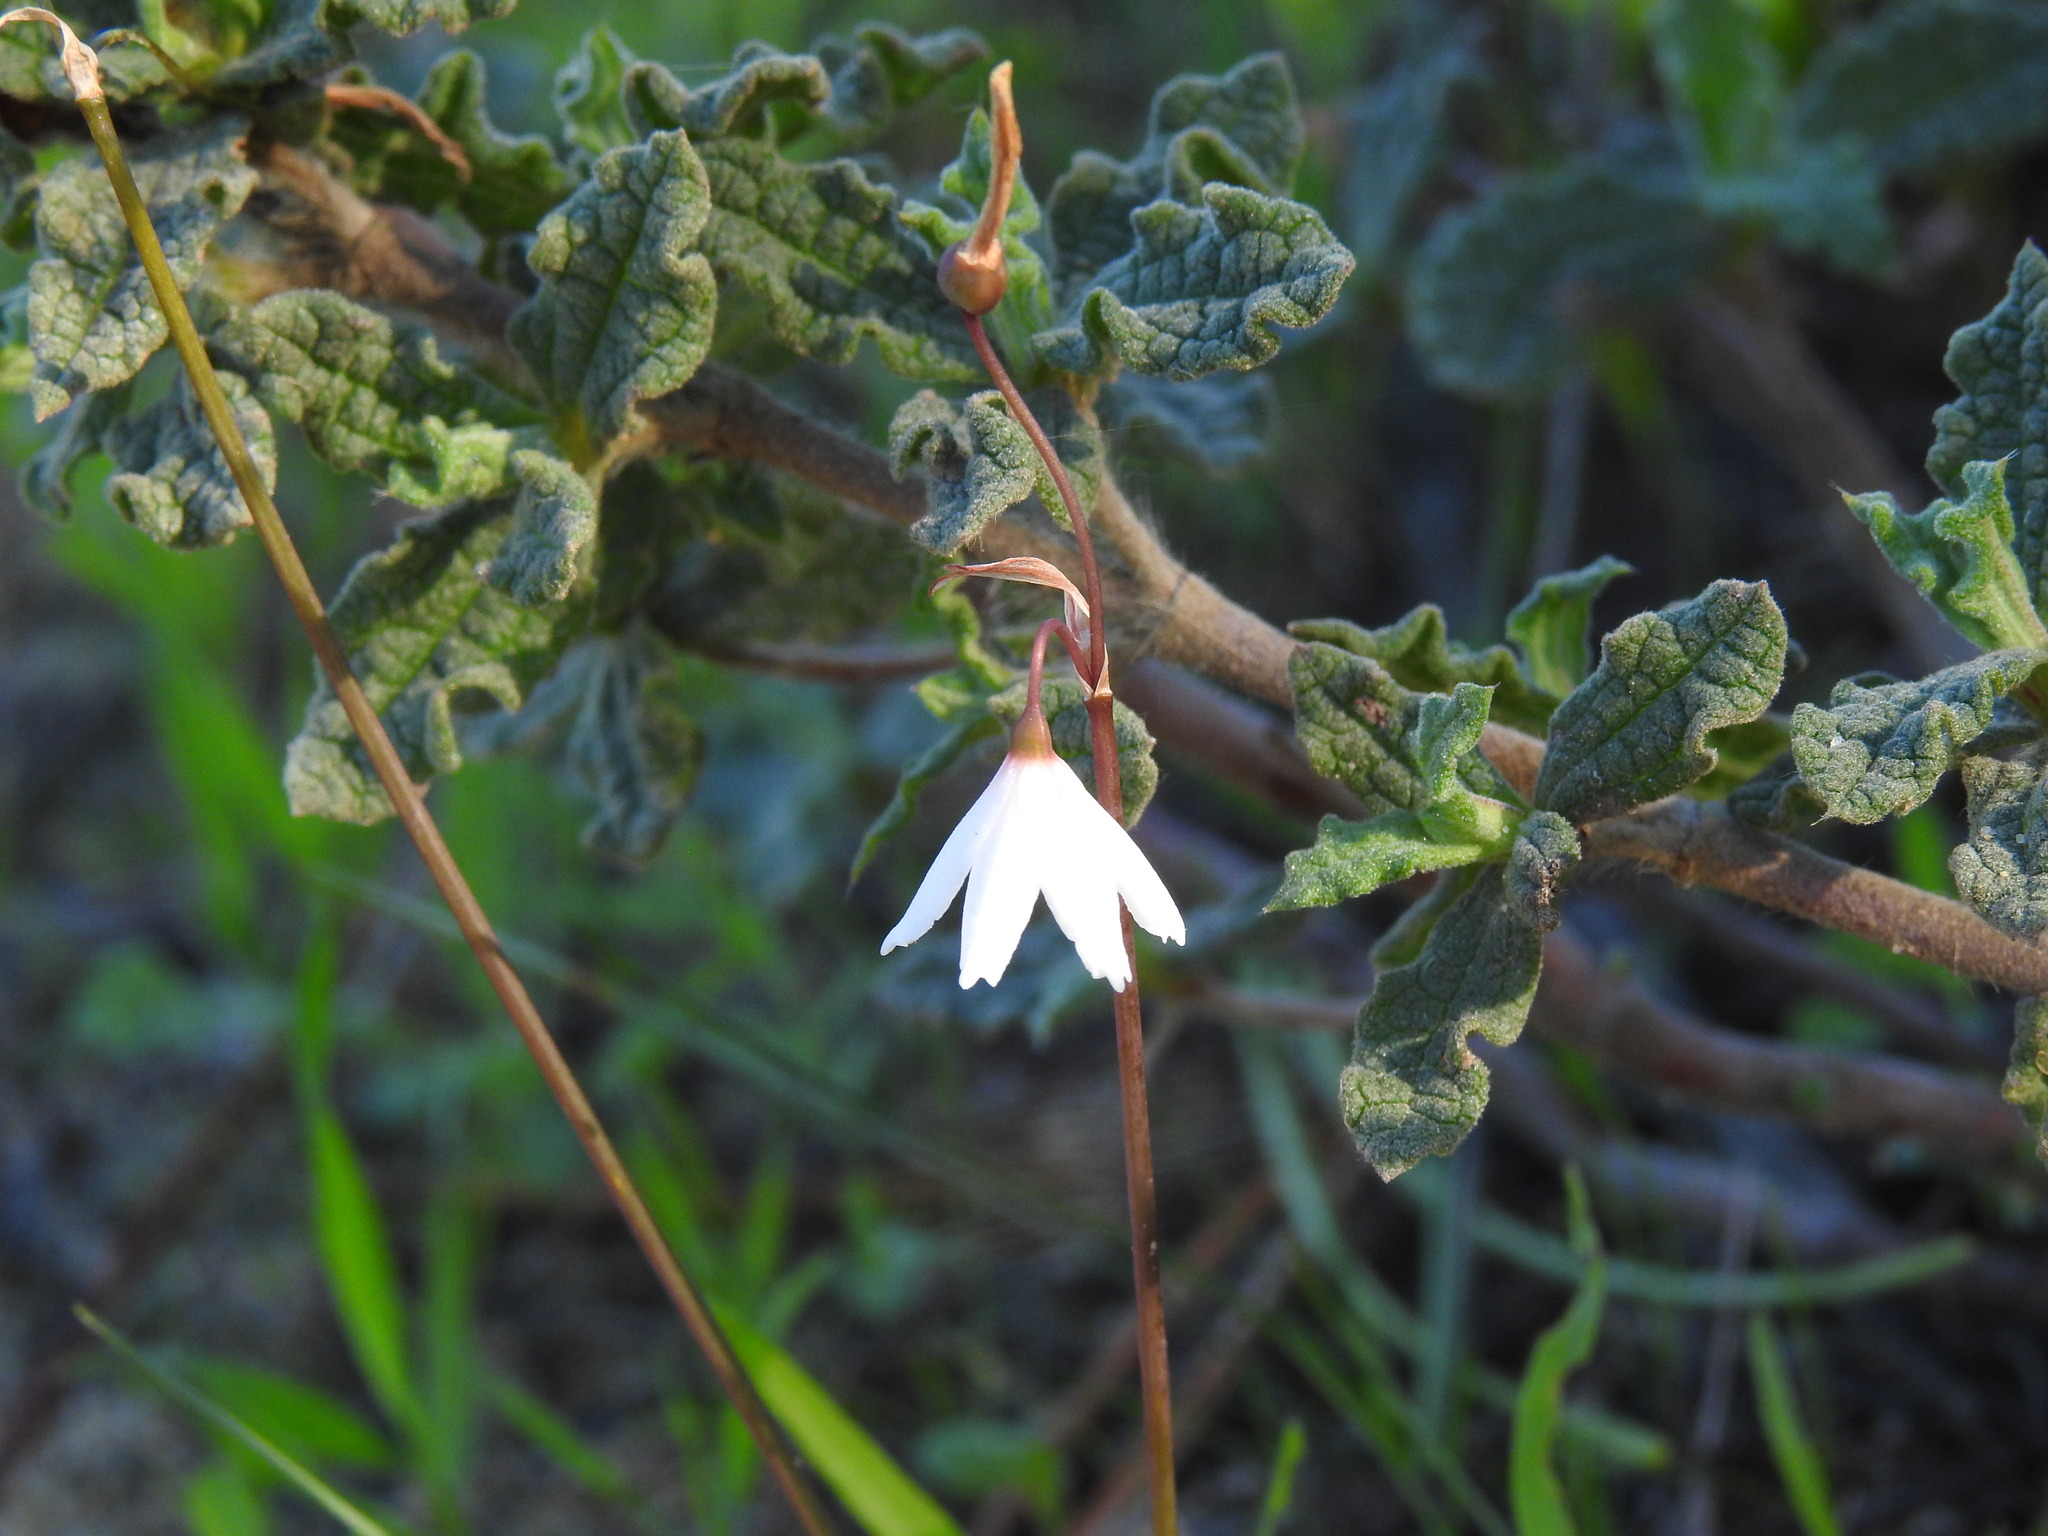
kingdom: Plantae
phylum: Tracheophyta
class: Liliopsida
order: Asparagales
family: Amaryllidaceae
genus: Acis
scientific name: Acis autumnalis
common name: Autumn snowflake
